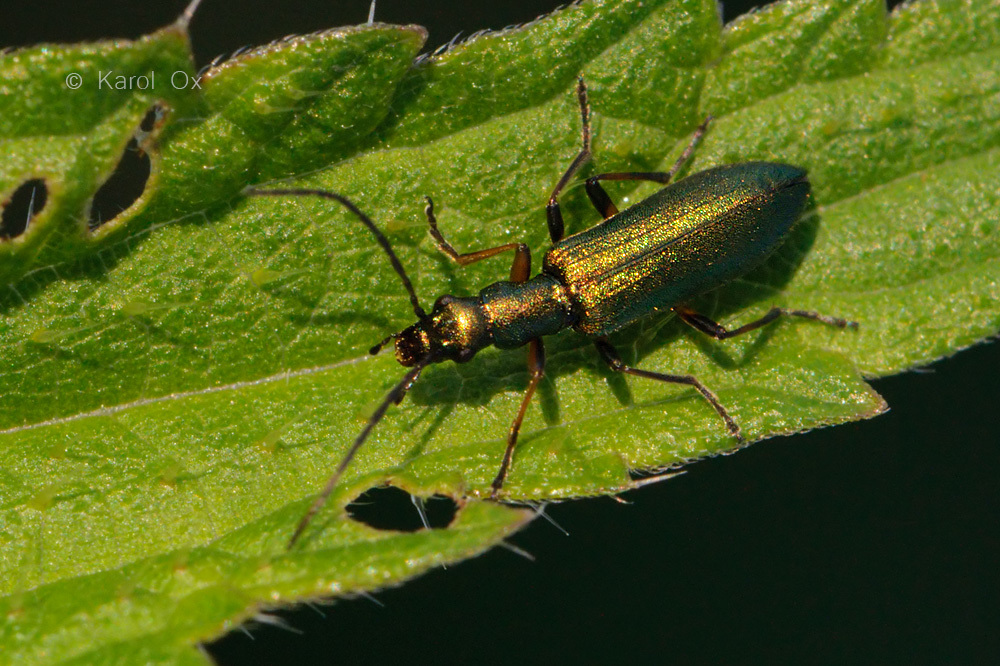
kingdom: Animalia
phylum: Arthropoda
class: Insecta
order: Coleoptera
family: Oedemeridae
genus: Chrysanthia
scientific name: Chrysanthia geniculata
